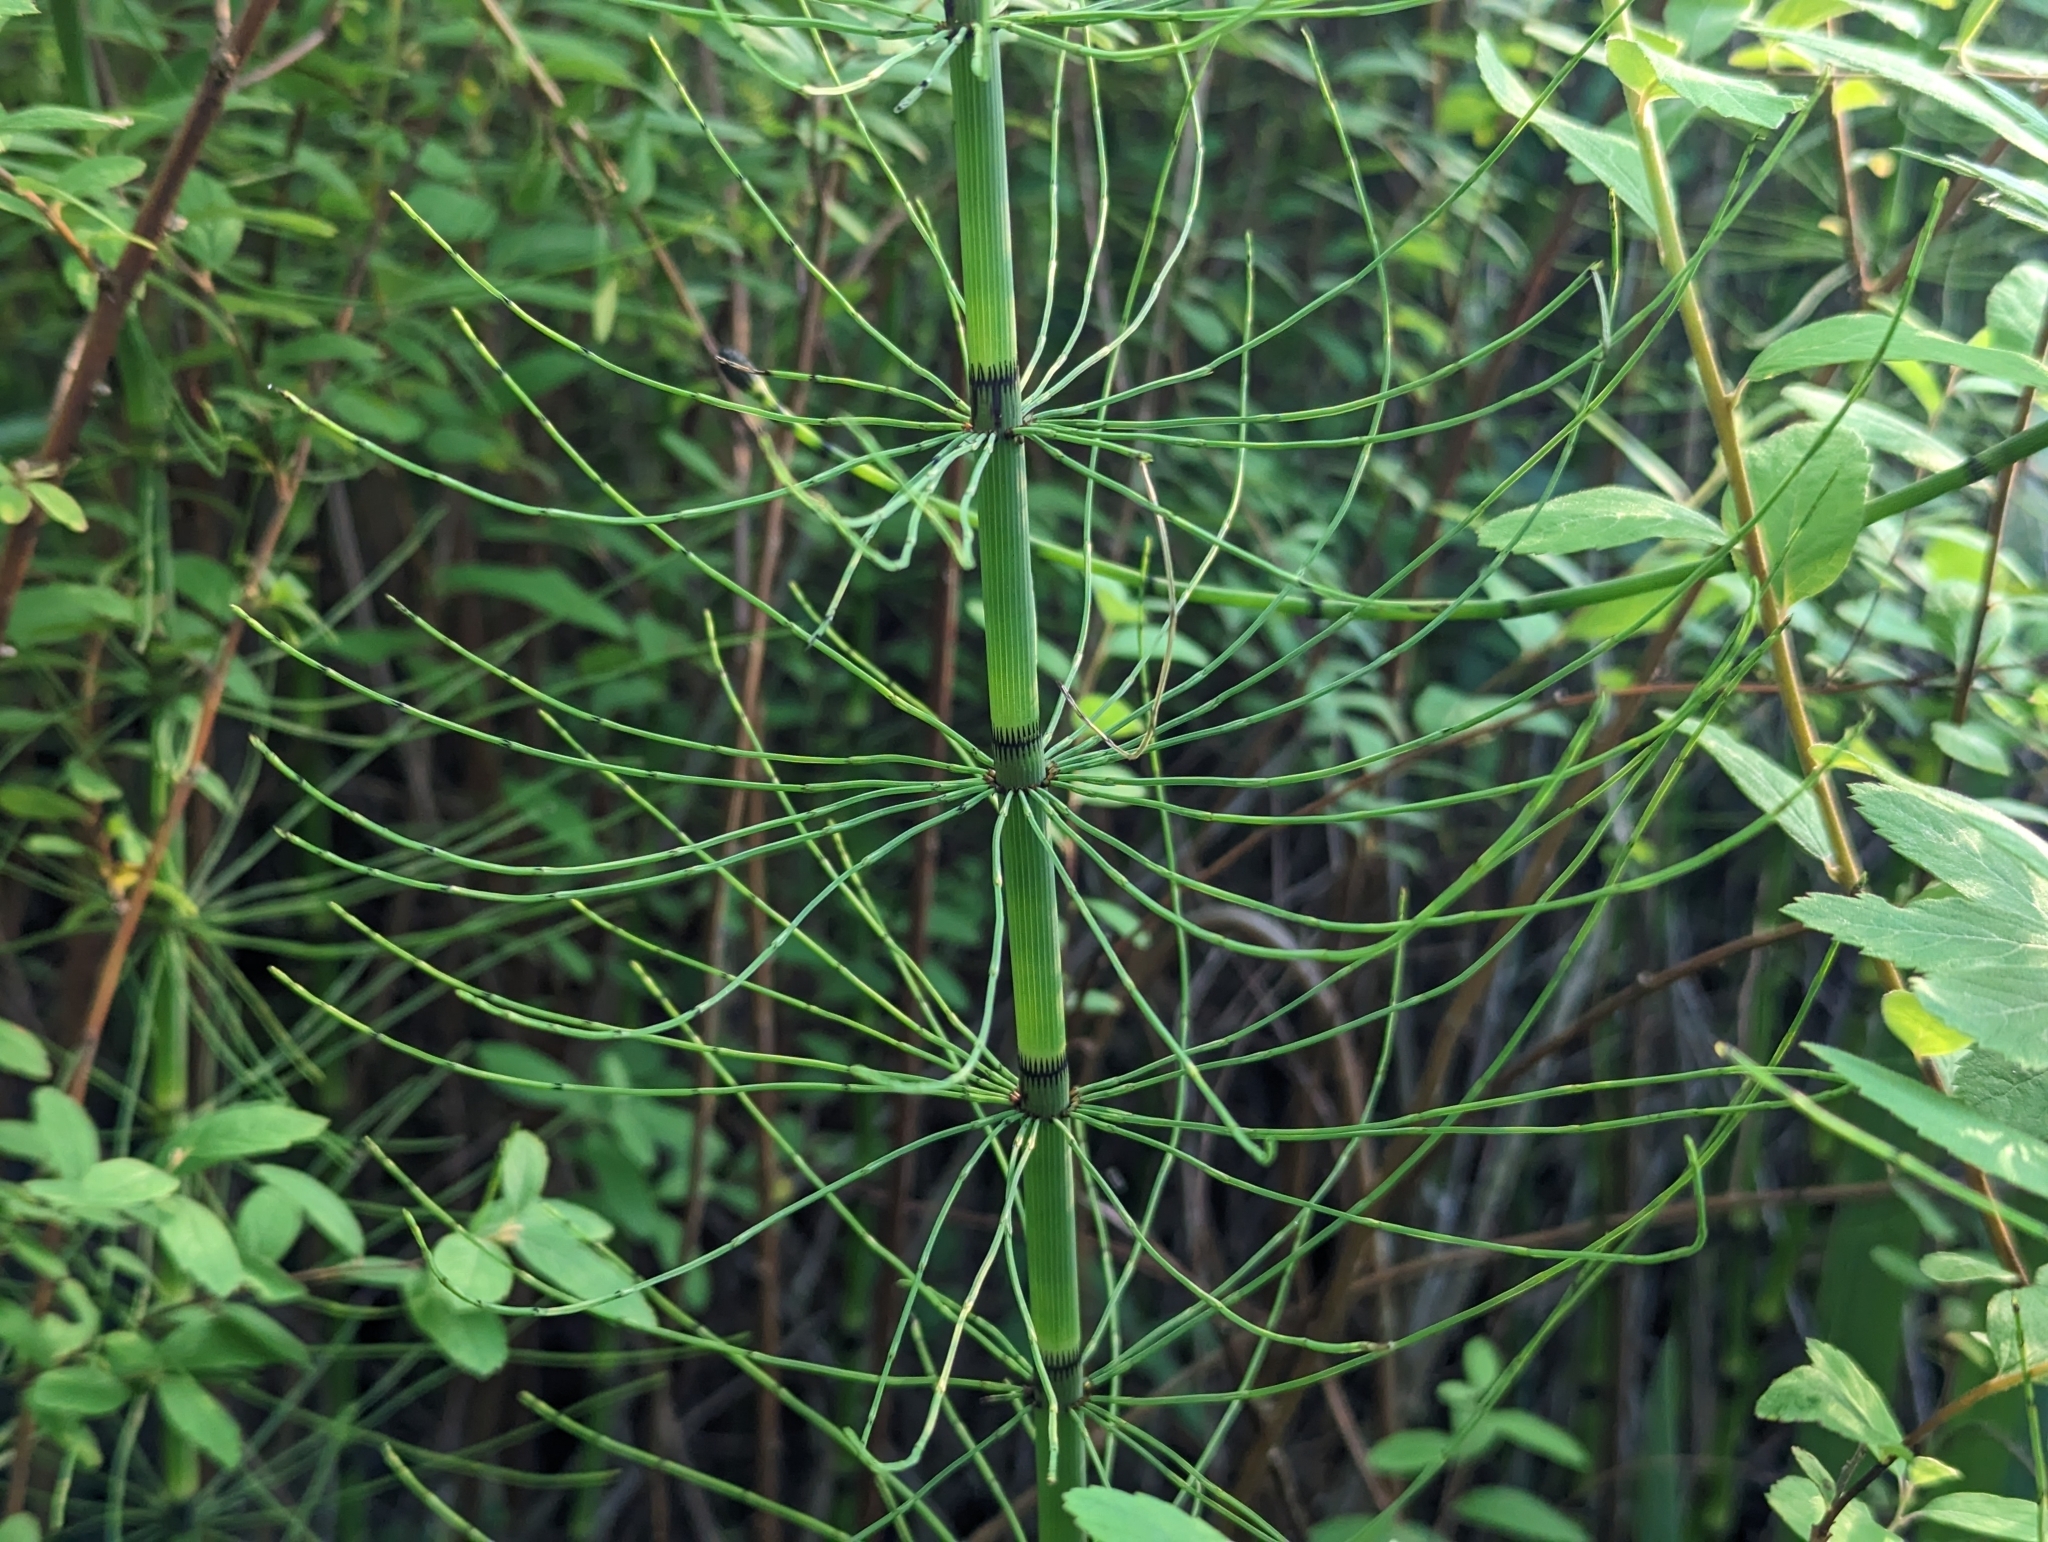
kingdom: Plantae
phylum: Tracheophyta
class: Polypodiopsida
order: Equisetales
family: Equisetaceae
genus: Equisetum
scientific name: Equisetum fluviatile
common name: Water horsetail
